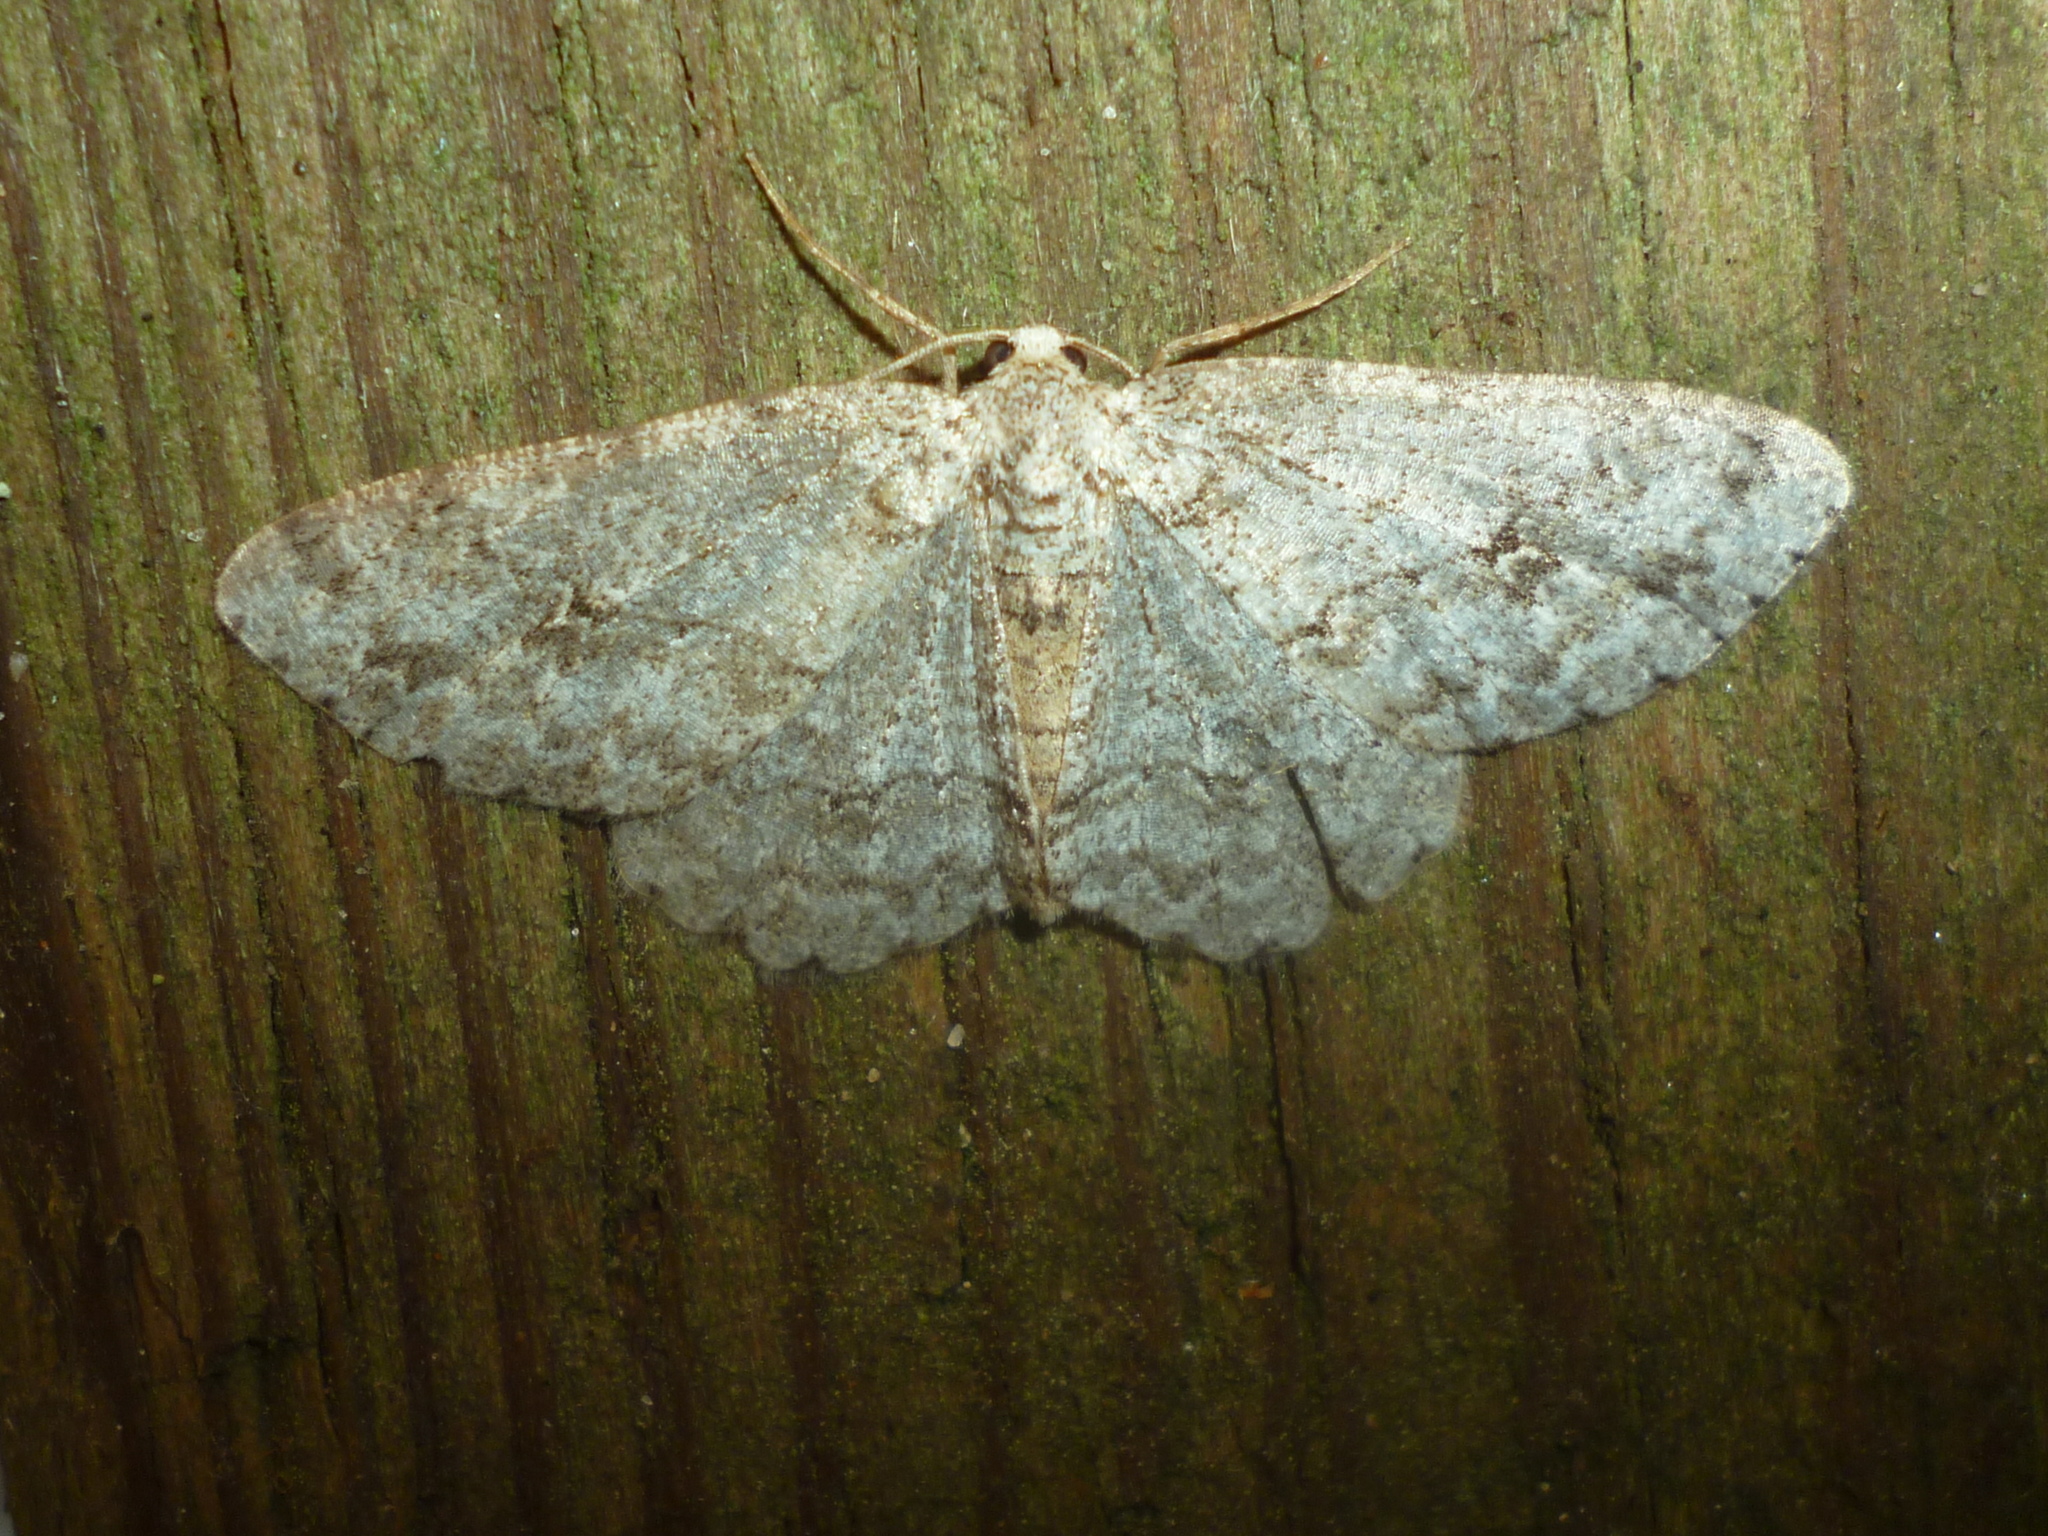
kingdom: Animalia
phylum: Arthropoda
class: Insecta
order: Lepidoptera
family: Geometridae
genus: Ectropis
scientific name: Ectropis crepuscularia
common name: Engrailed
